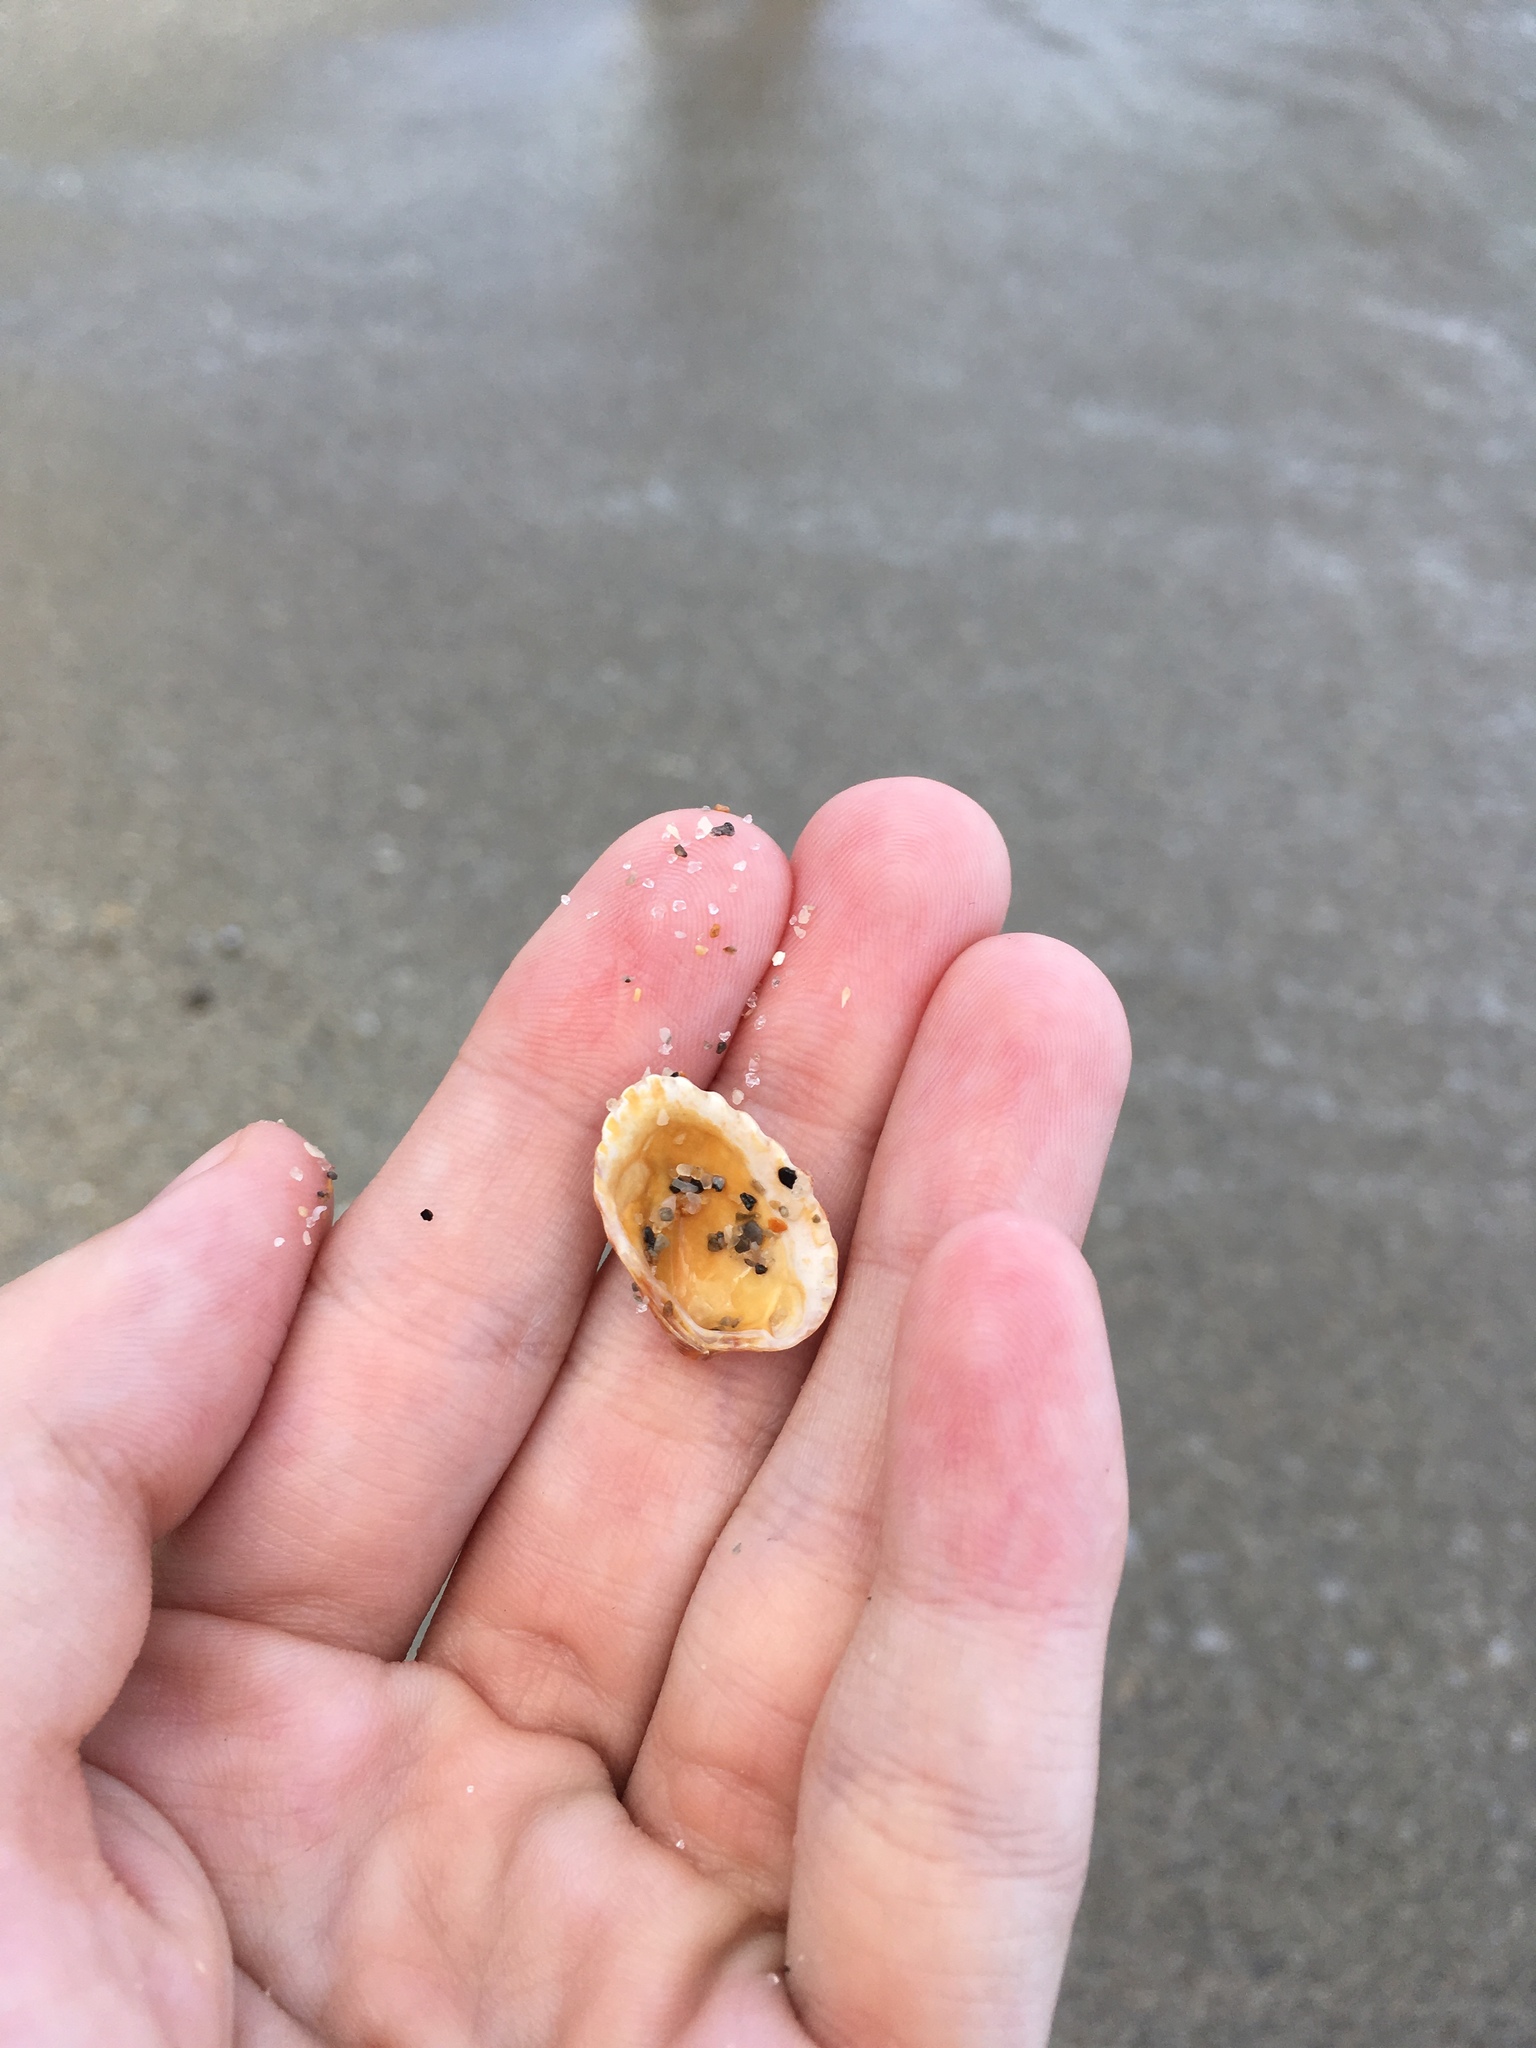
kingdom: Animalia
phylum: Mollusca
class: Bivalvia
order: Carditida
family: Carditidae
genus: Cardites
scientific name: Cardites floridanus
